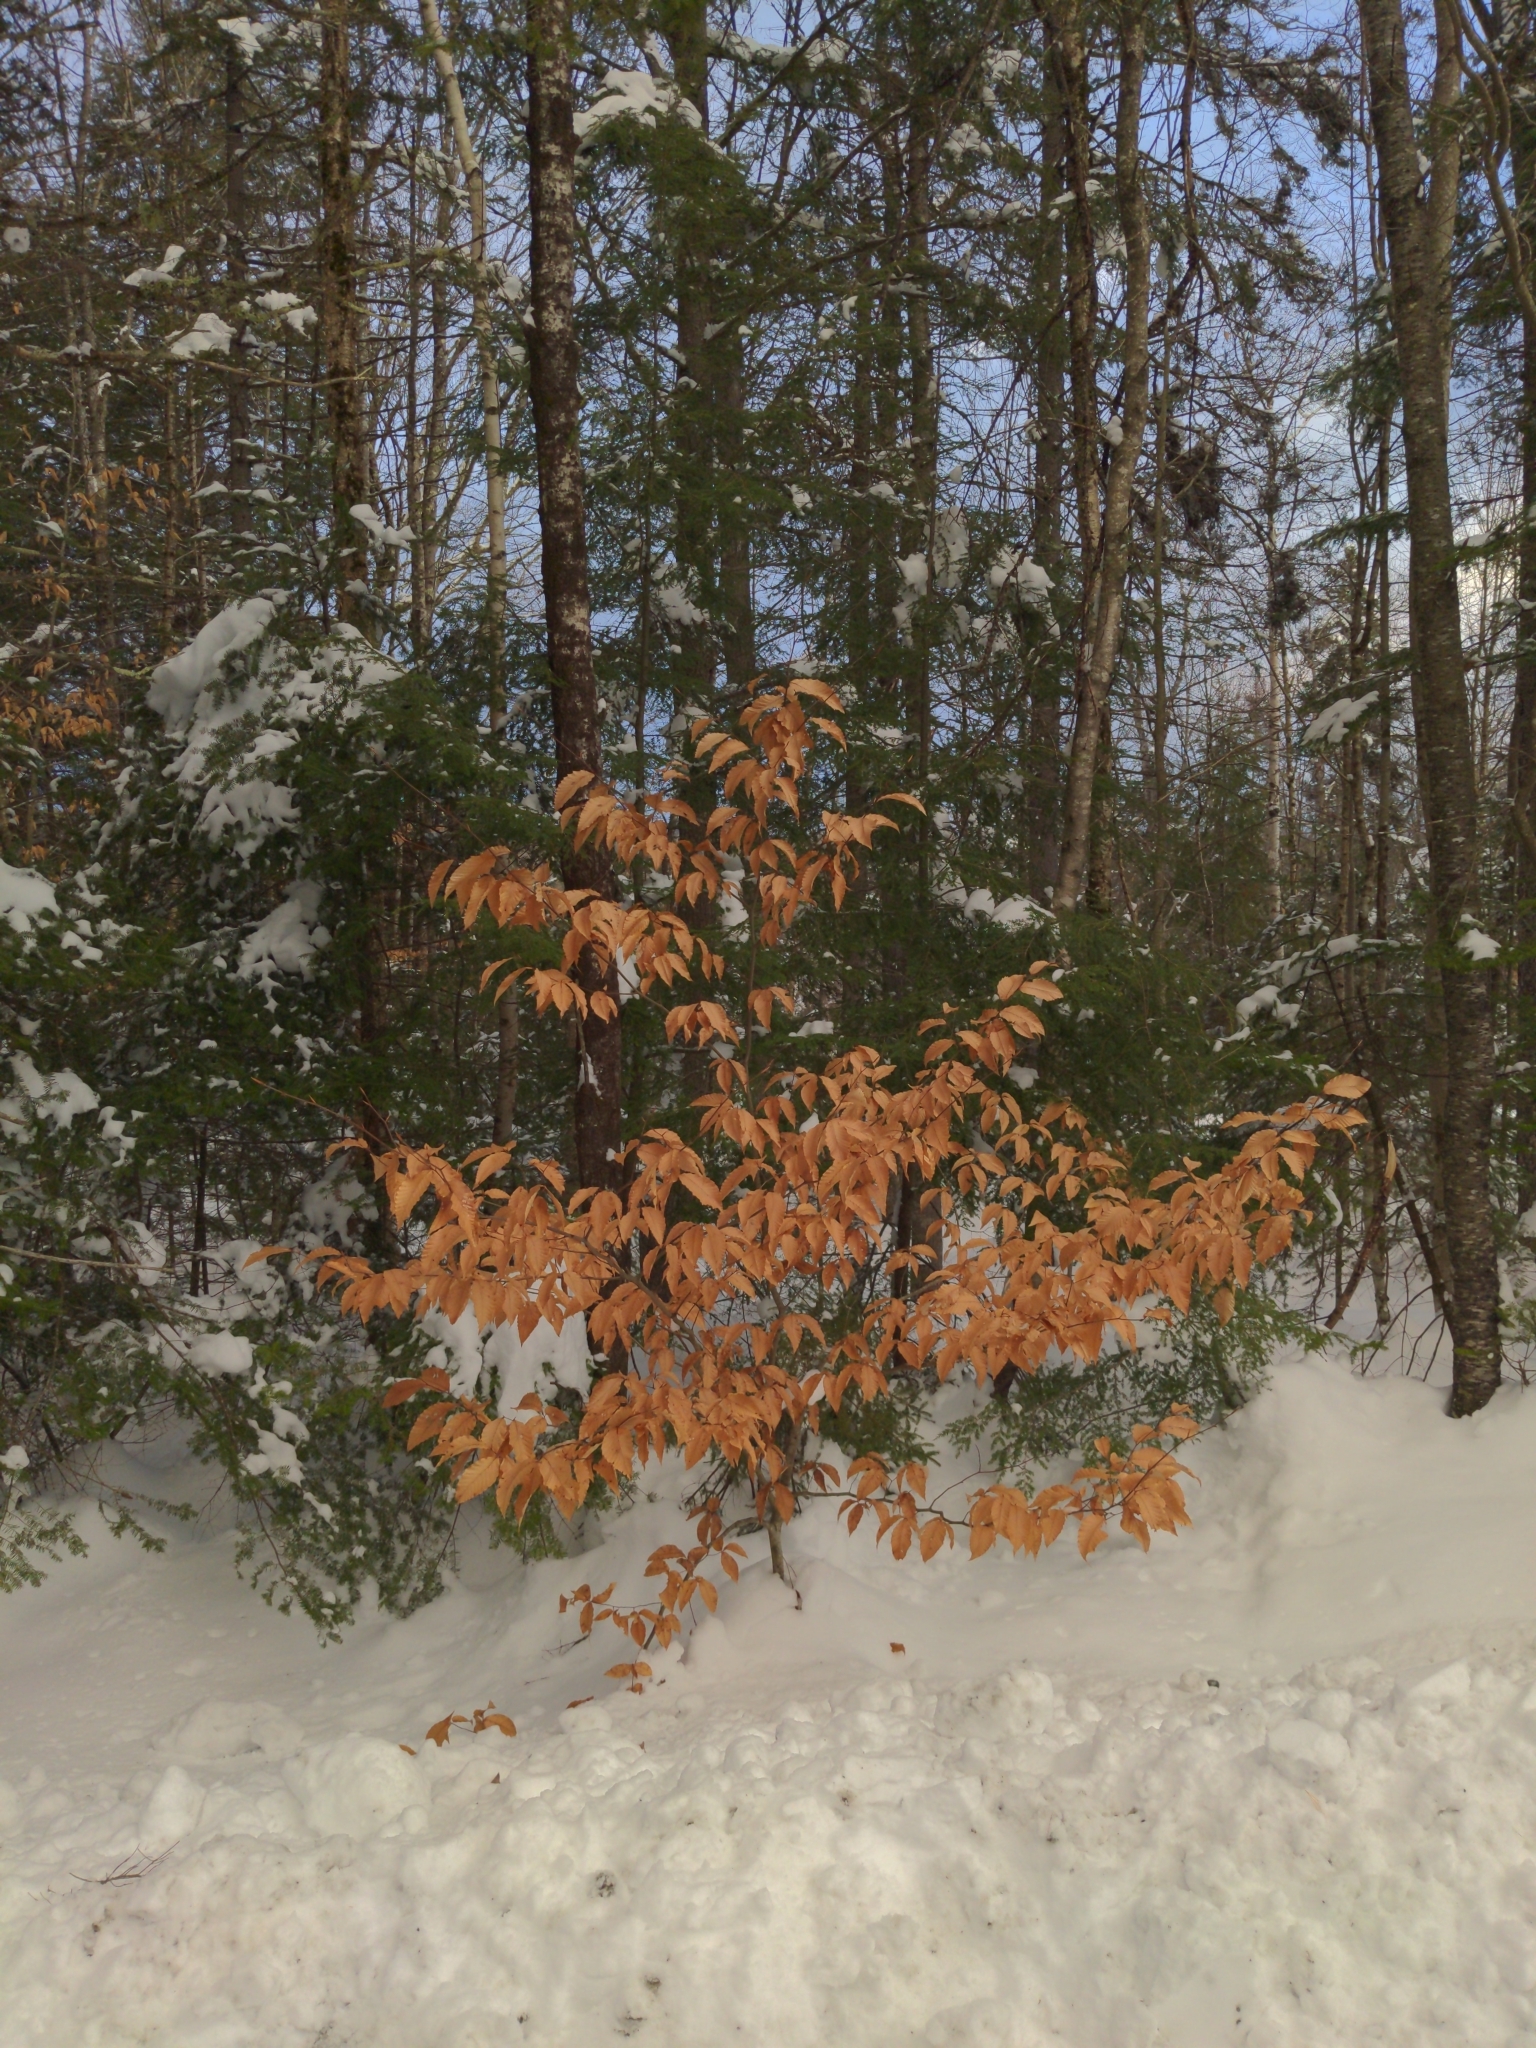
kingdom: Plantae
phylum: Tracheophyta
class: Magnoliopsida
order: Fagales
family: Fagaceae
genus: Fagus
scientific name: Fagus grandifolia
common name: American beech
